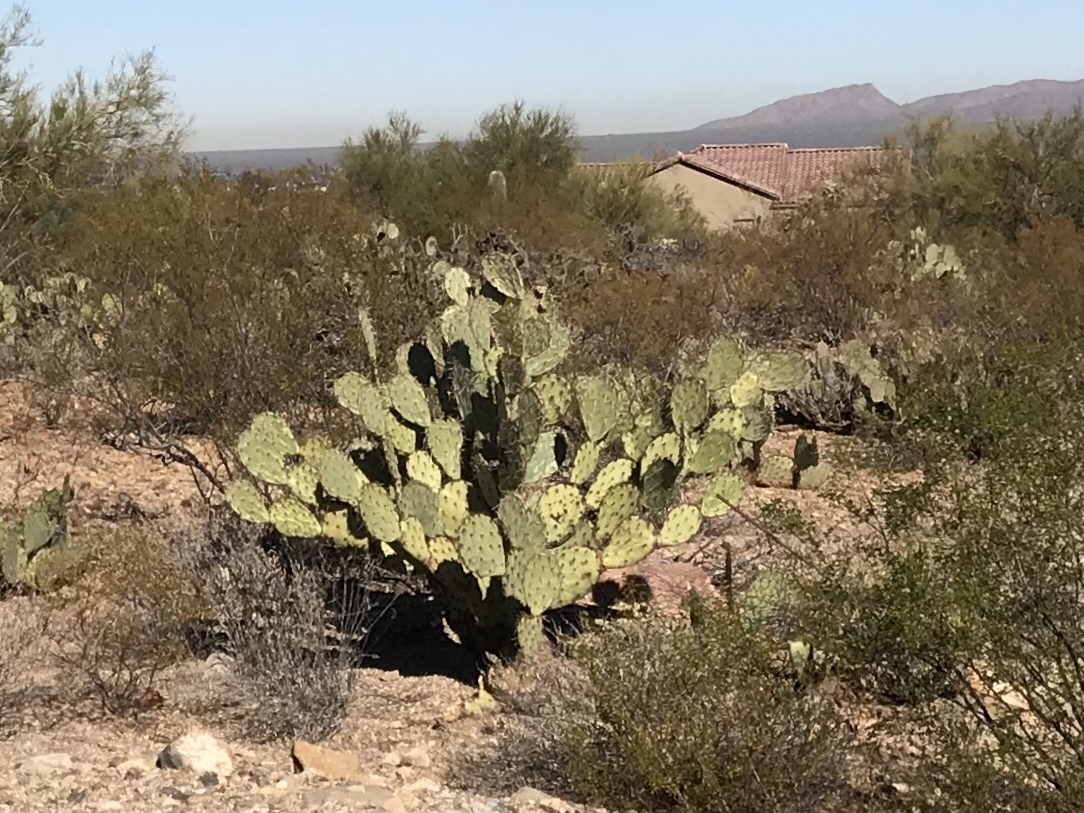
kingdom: Plantae
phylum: Tracheophyta
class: Magnoliopsida
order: Caryophyllales
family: Cactaceae
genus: Opuntia
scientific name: Opuntia engelmannii
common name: Cactus-apple
